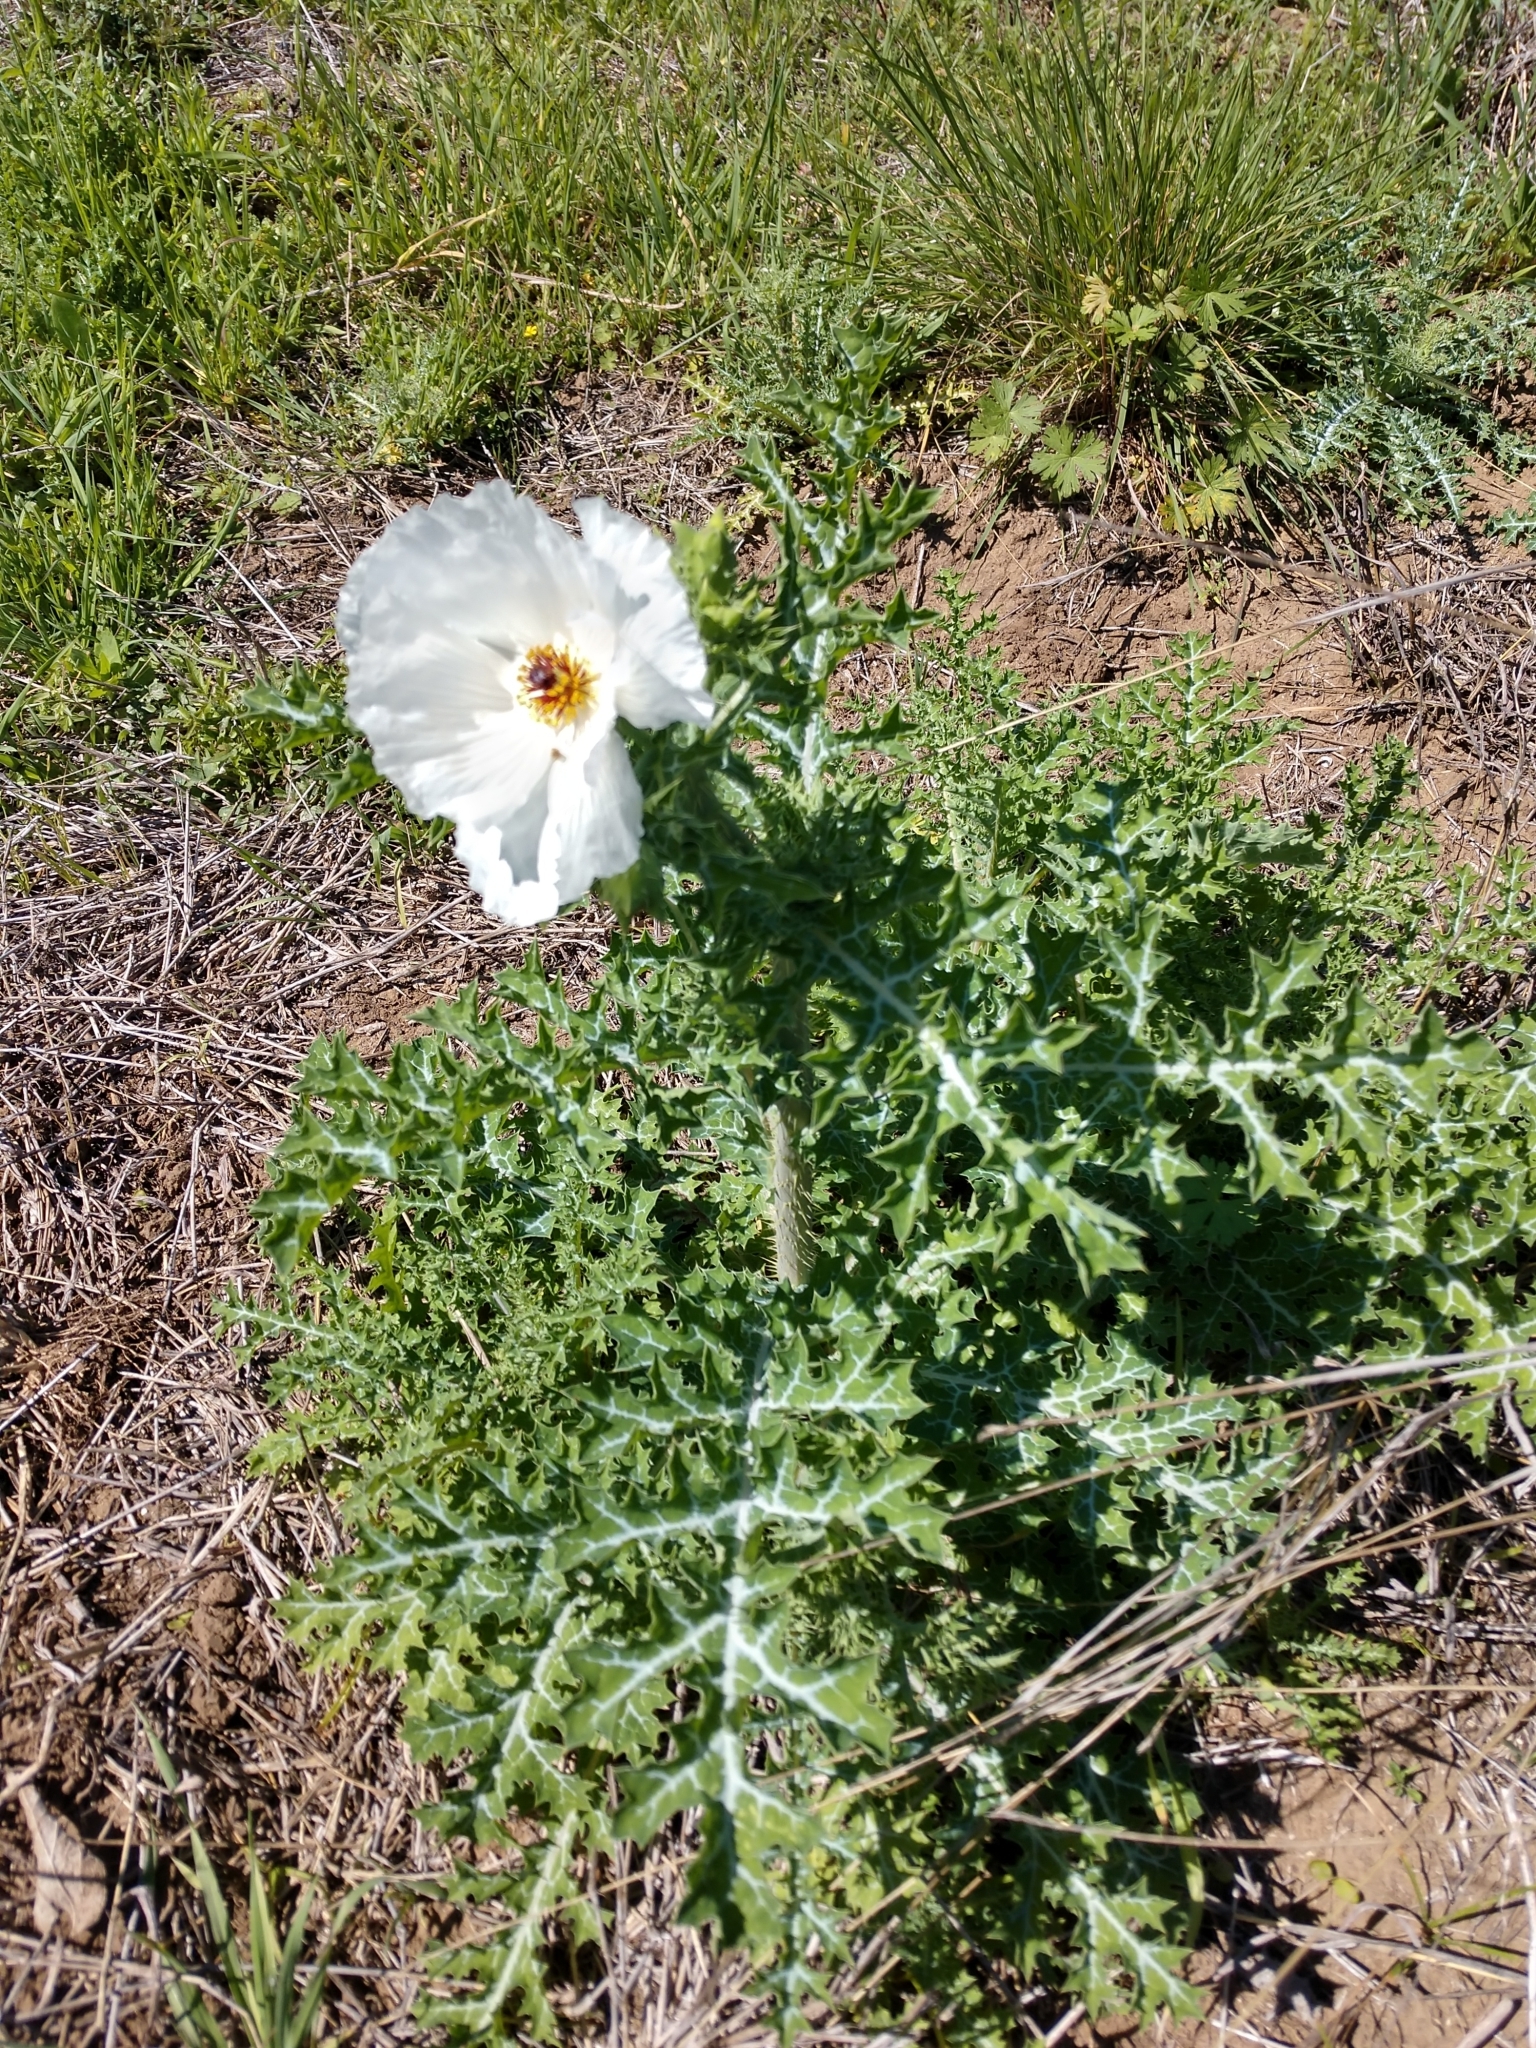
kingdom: Plantae
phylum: Tracheophyta
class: Magnoliopsida
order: Ranunculales
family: Papaveraceae
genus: Argemone
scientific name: Argemone sanguinea
